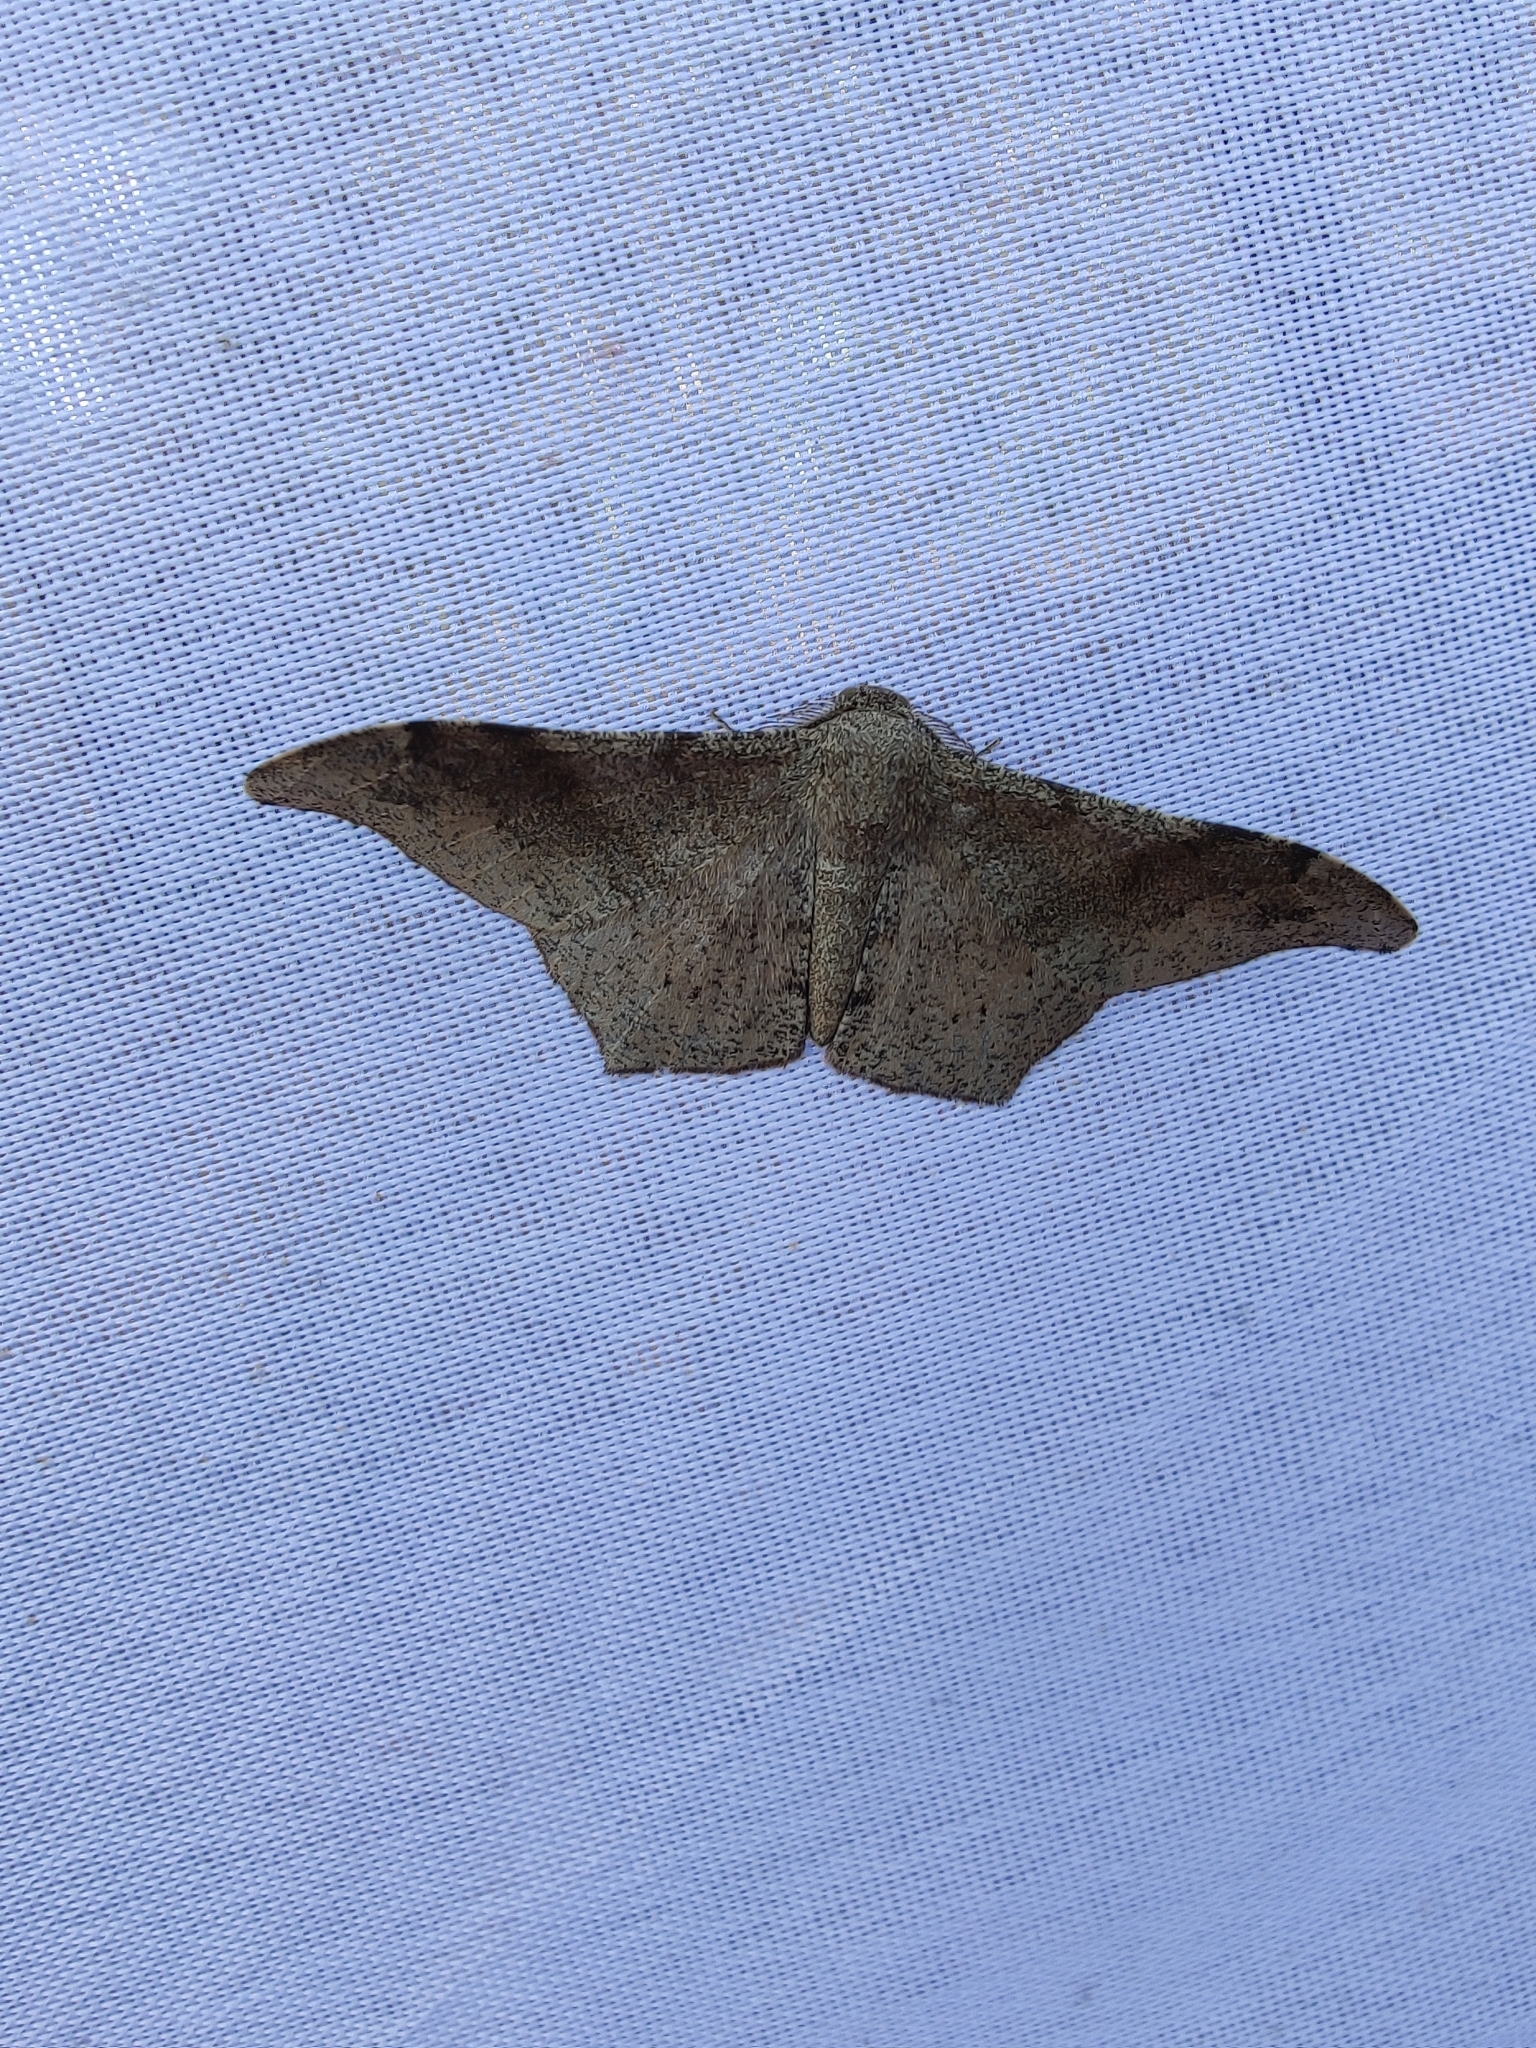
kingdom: Animalia
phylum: Arthropoda
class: Insecta
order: Lepidoptera
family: Geometridae
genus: Hyposidra
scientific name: Hyposidra talaca
